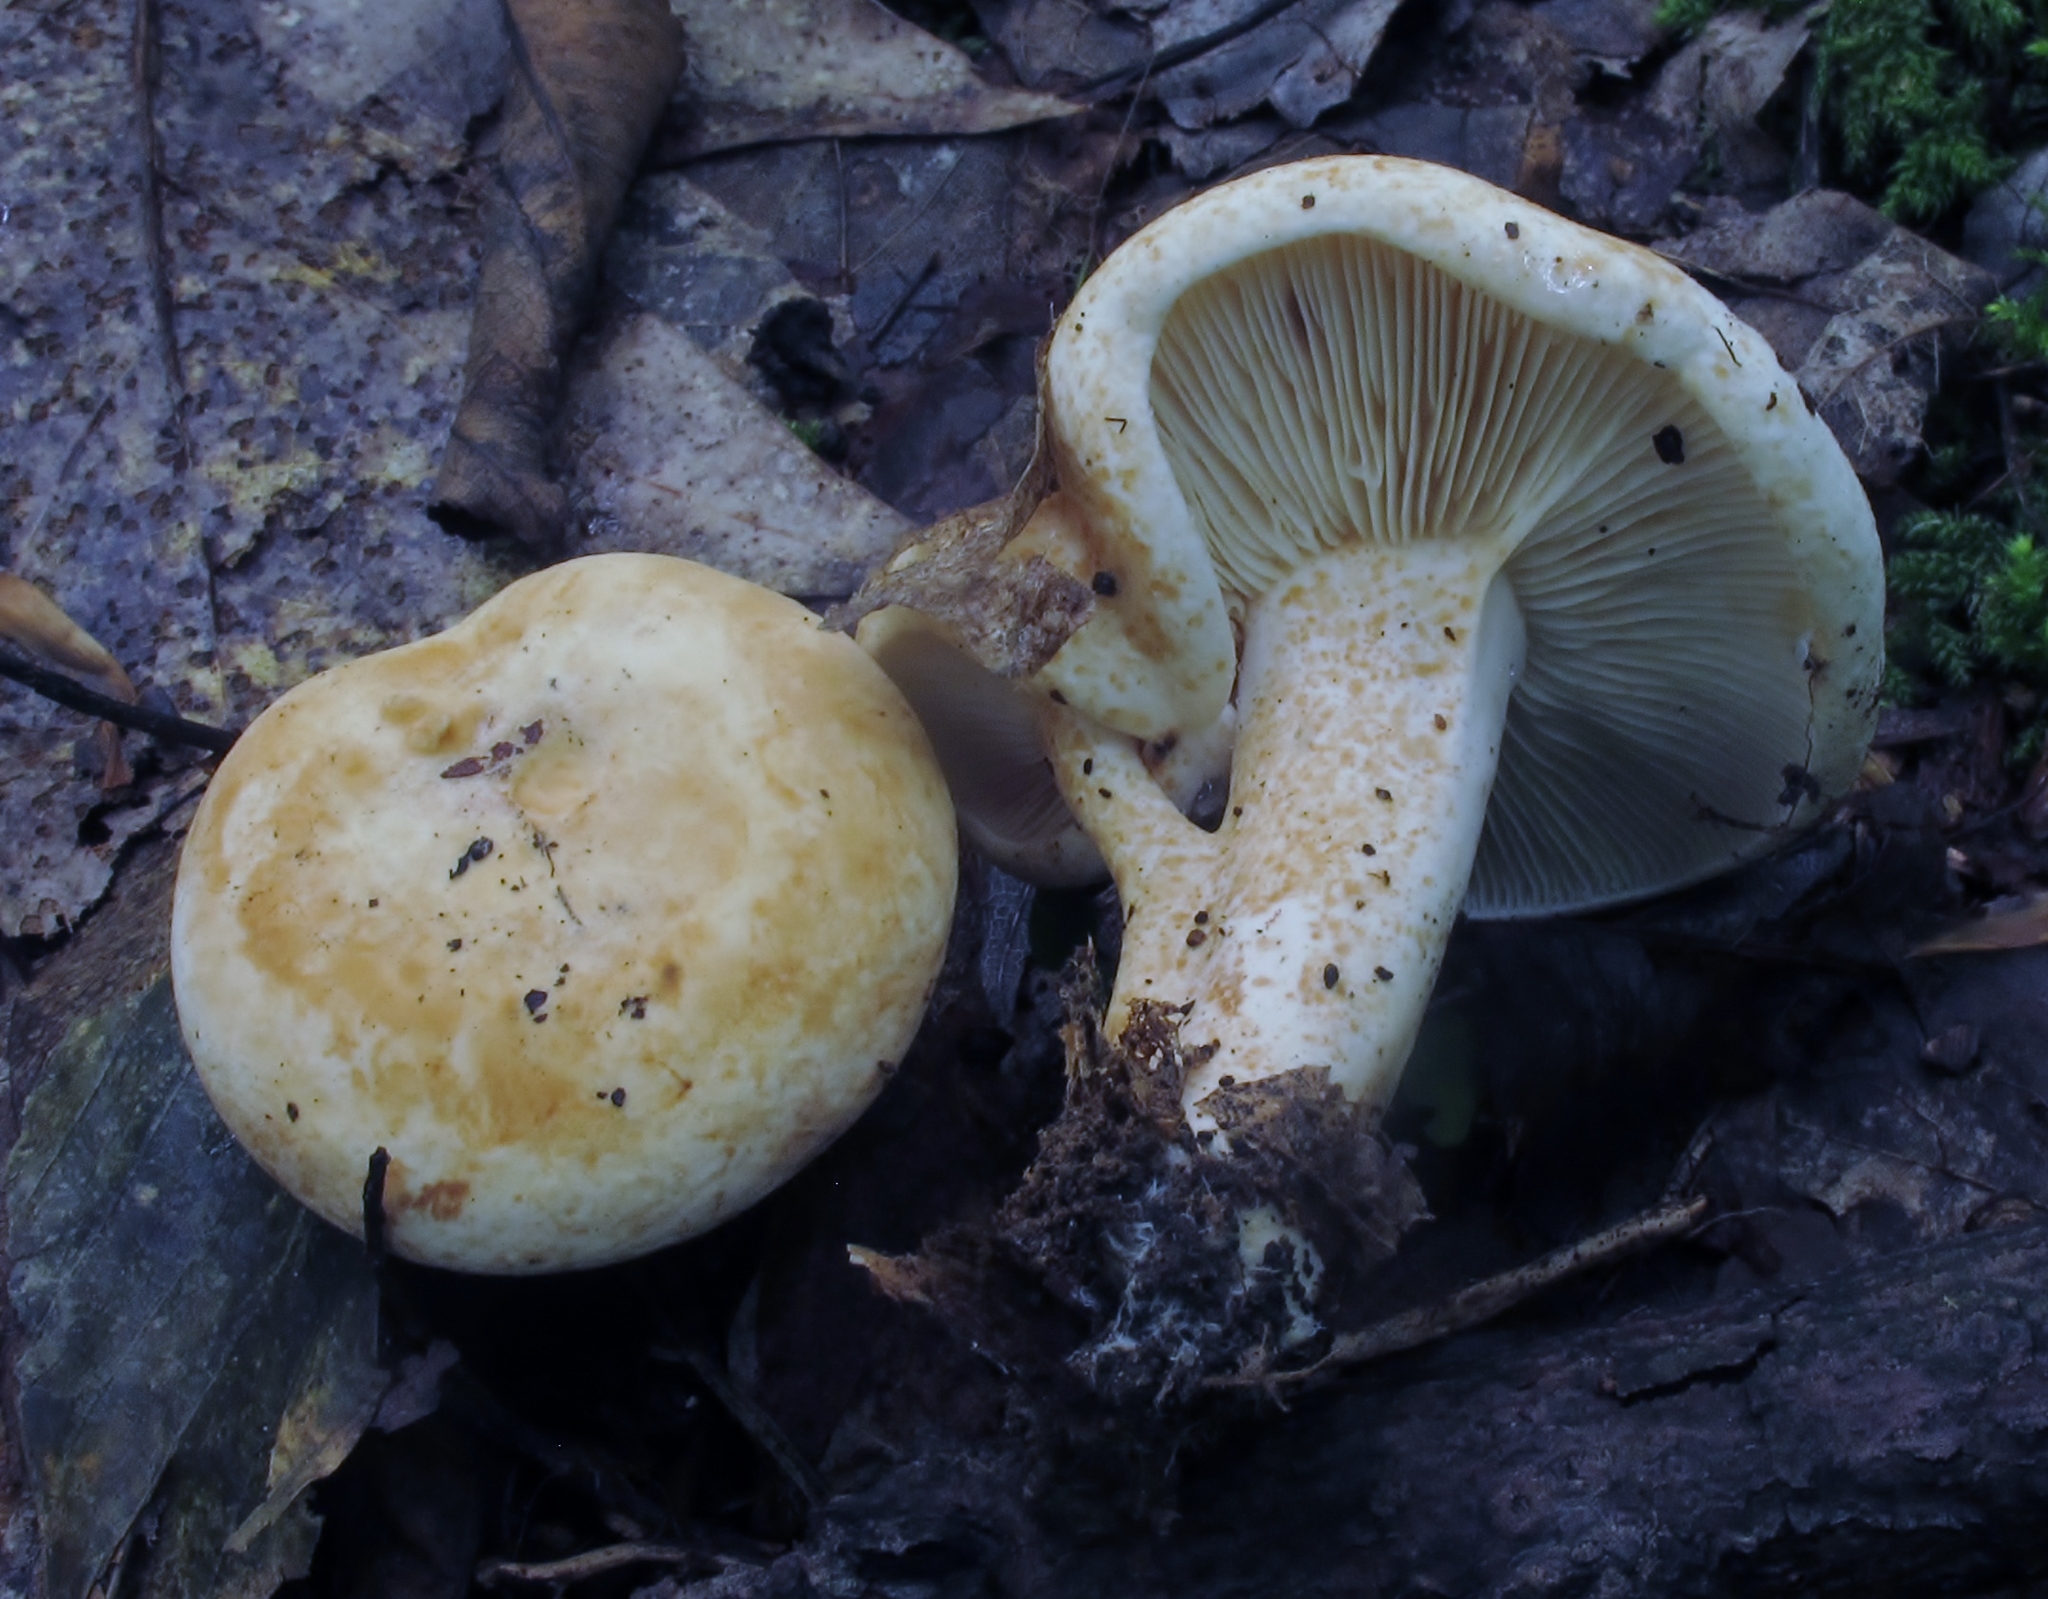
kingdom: Fungi
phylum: Basidiomycota
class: Agaricomycetes
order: Russulales
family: Russulaceae
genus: Lactifluus
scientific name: Lactifluus luteolus
